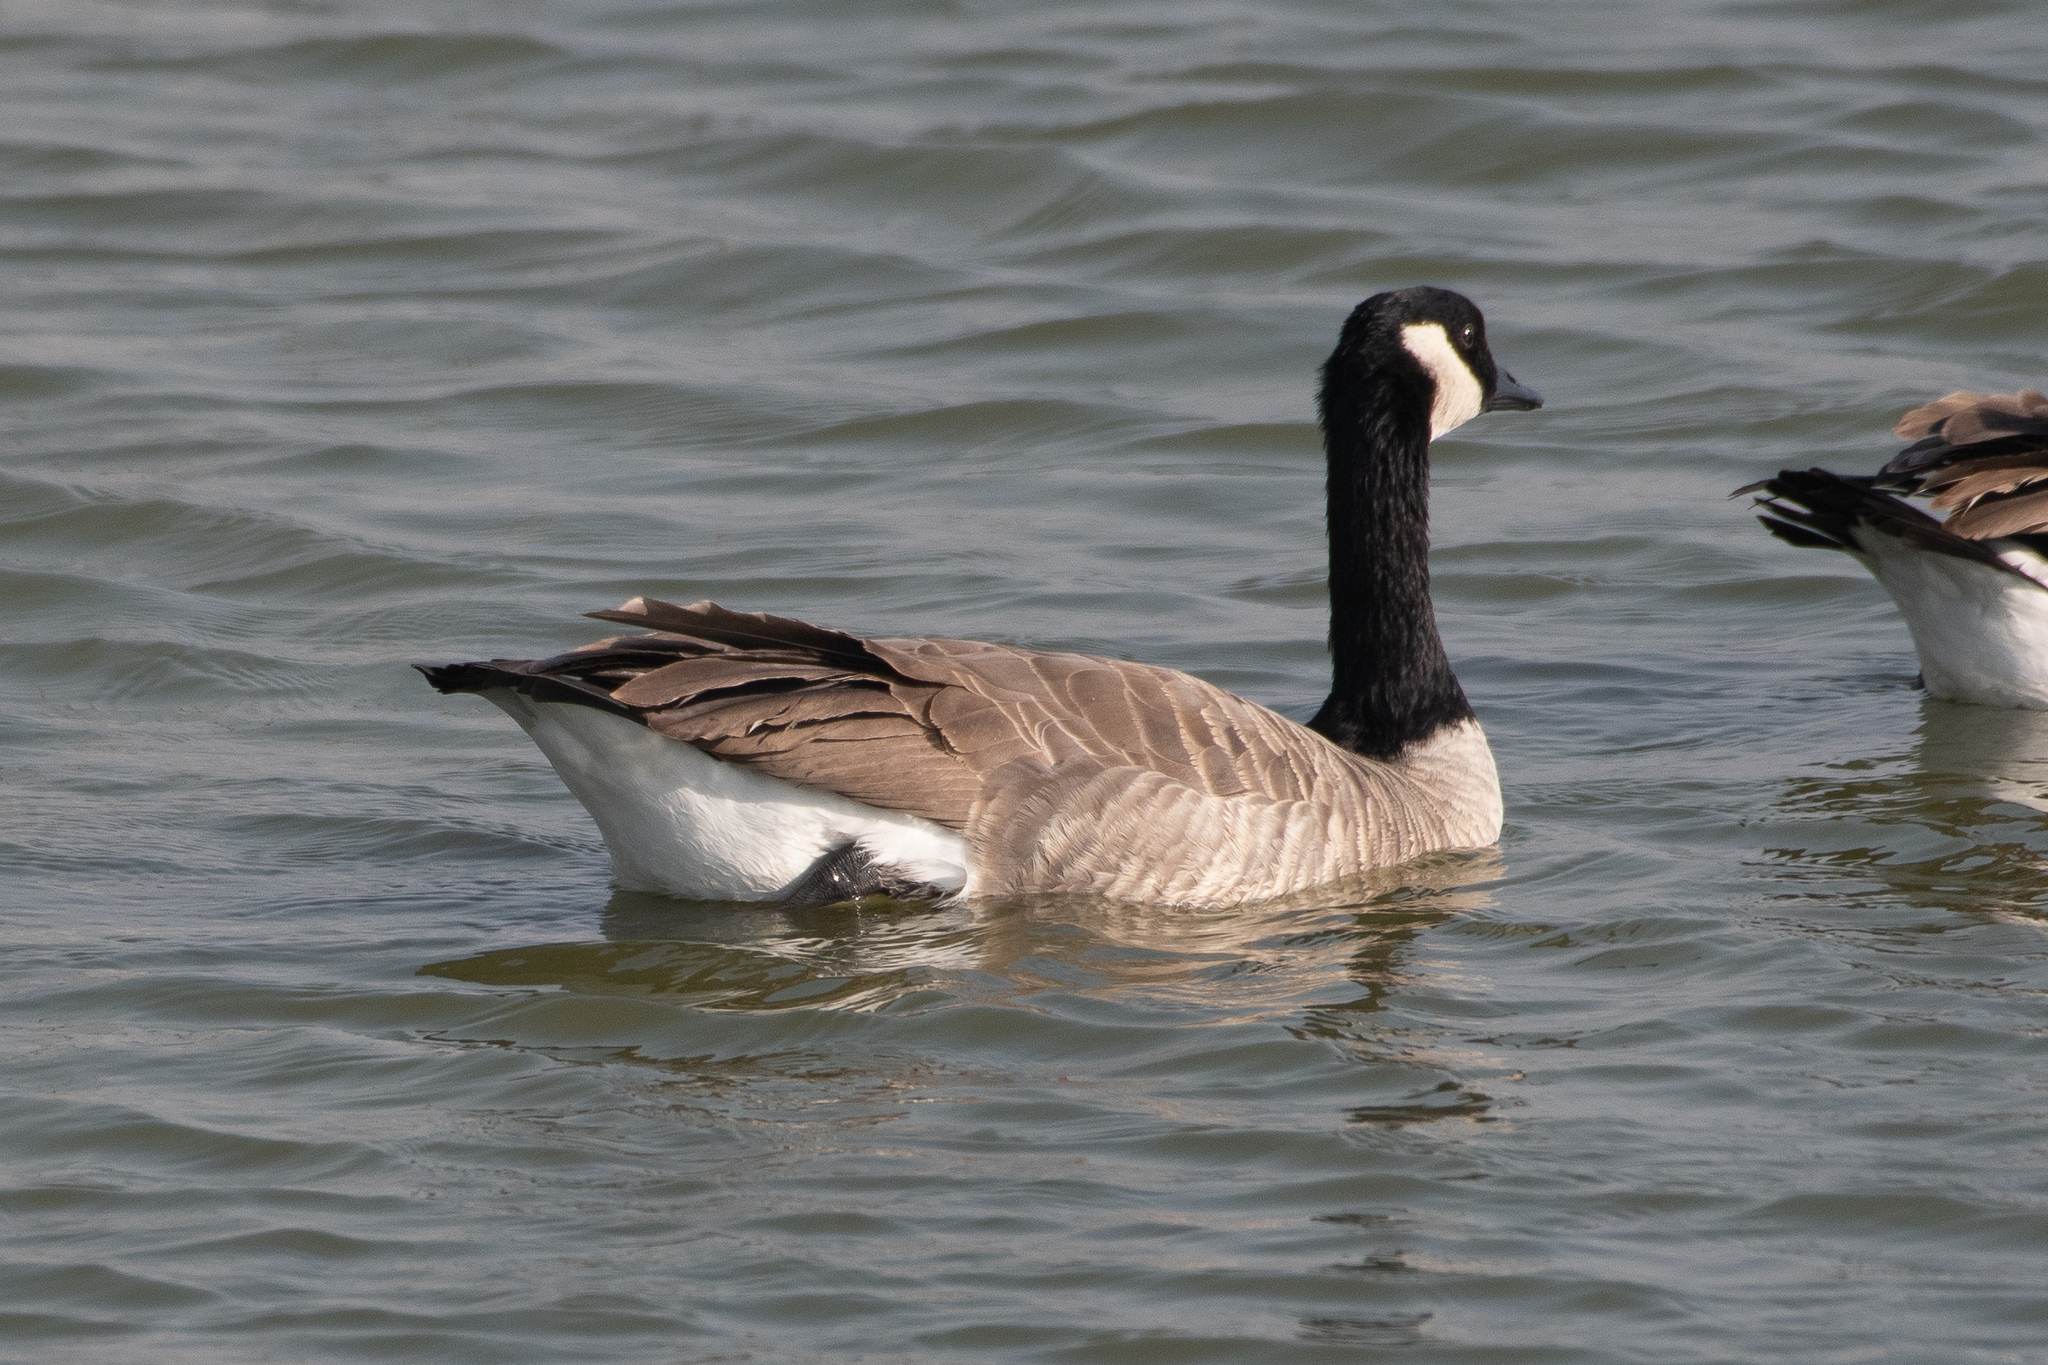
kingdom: Animalia
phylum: Chordata
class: Aves
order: Anseriformes
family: Anatidae
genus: Branta
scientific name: Branta canadensis
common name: Canada goose
